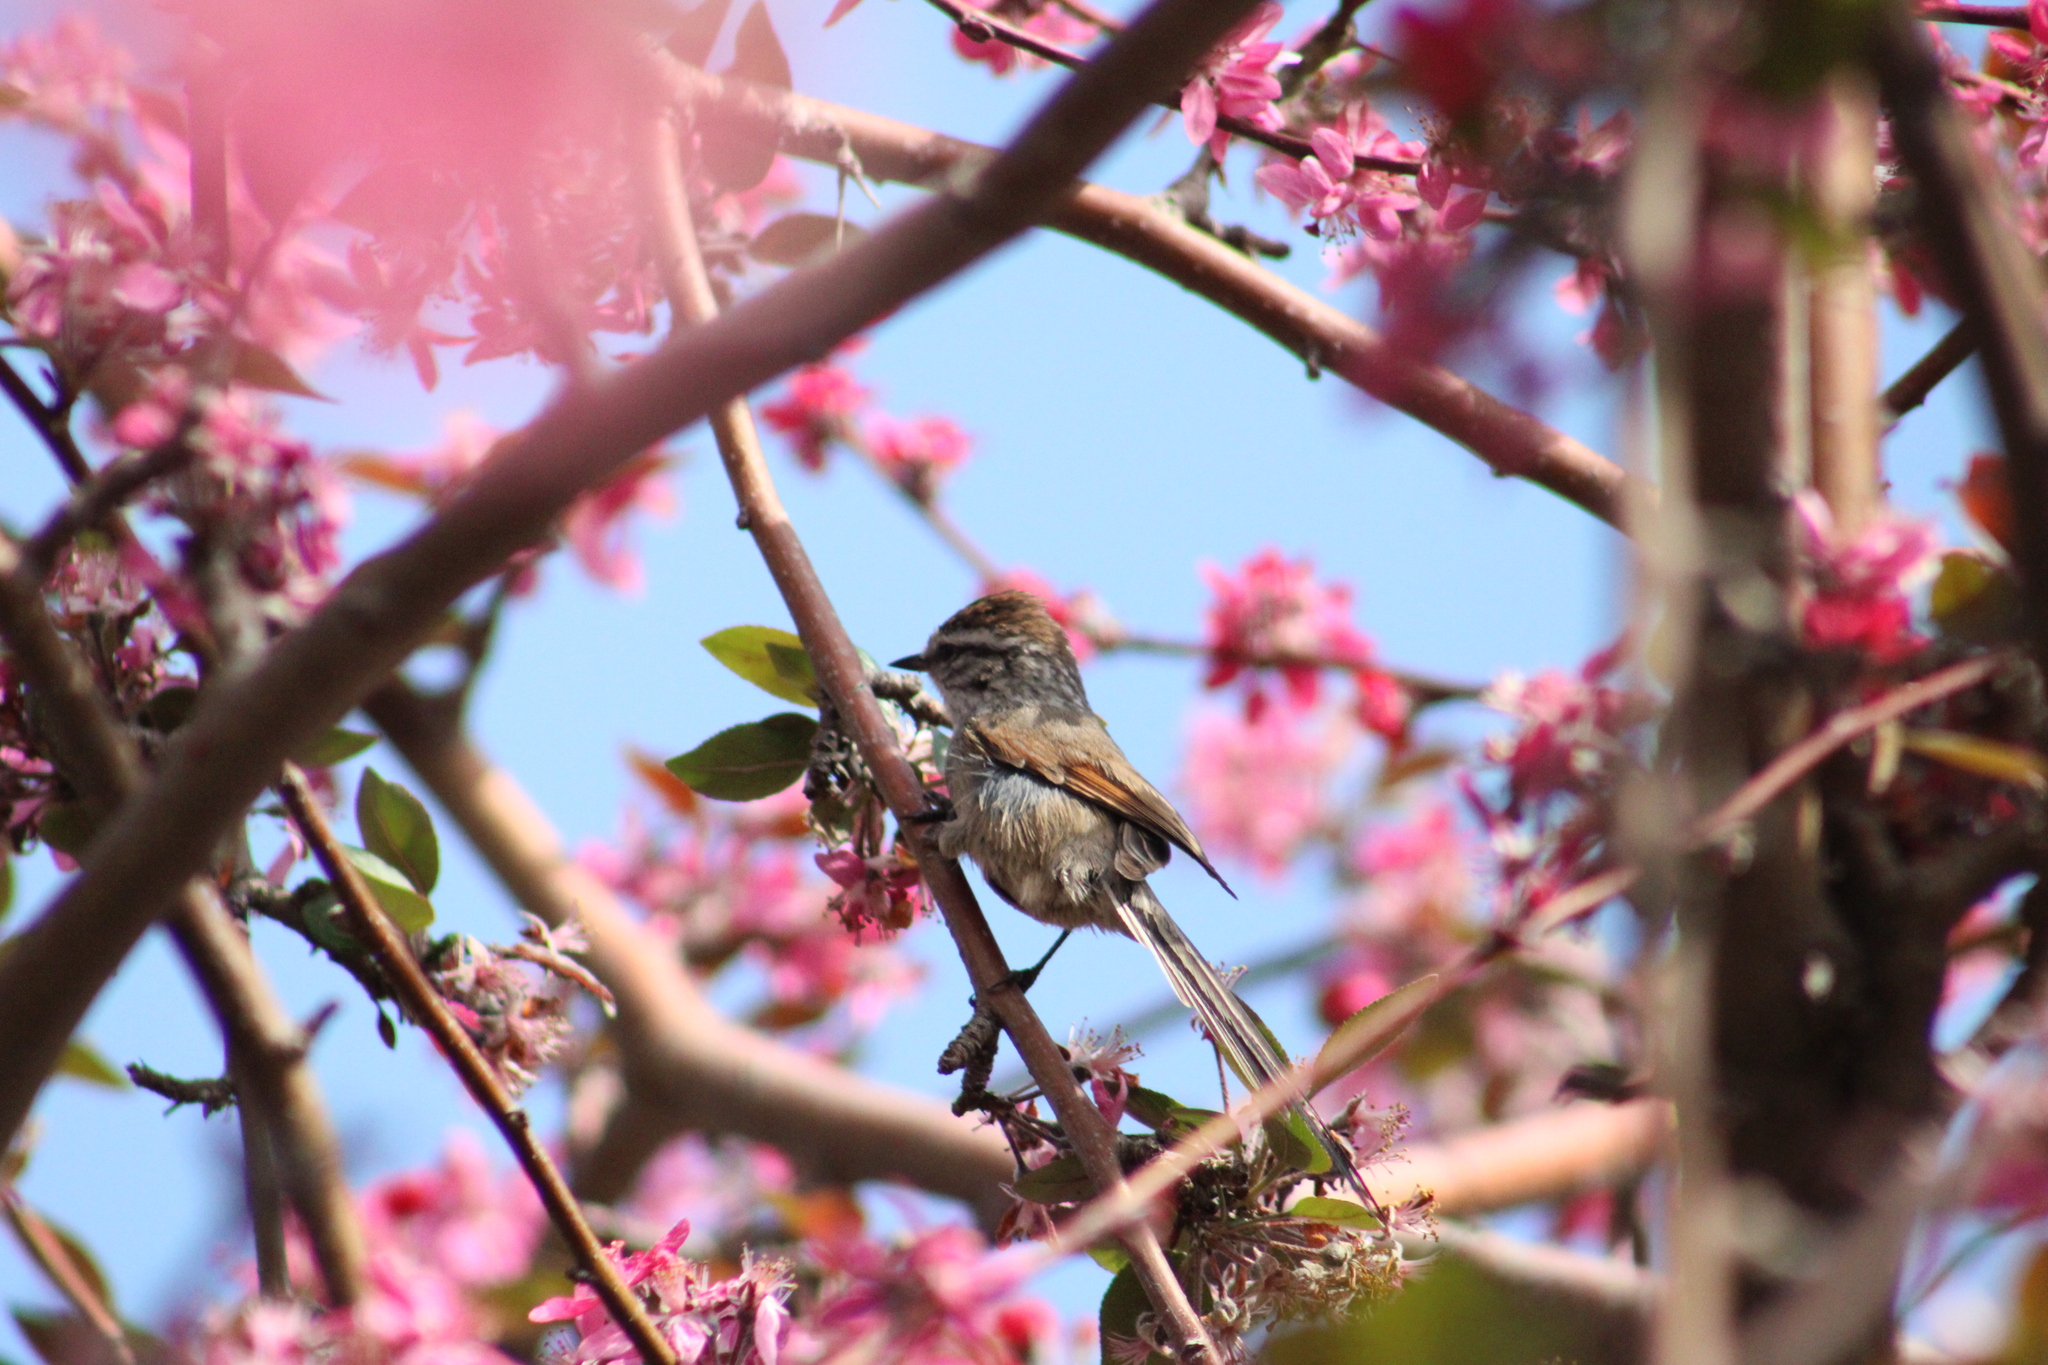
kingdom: Animalia
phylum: Chordata
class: Aves
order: Passeriformes
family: Furnariidae
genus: Leptasthenura
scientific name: Leptasthenura aegithaloides
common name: Plain-mantled tit-spinetail
